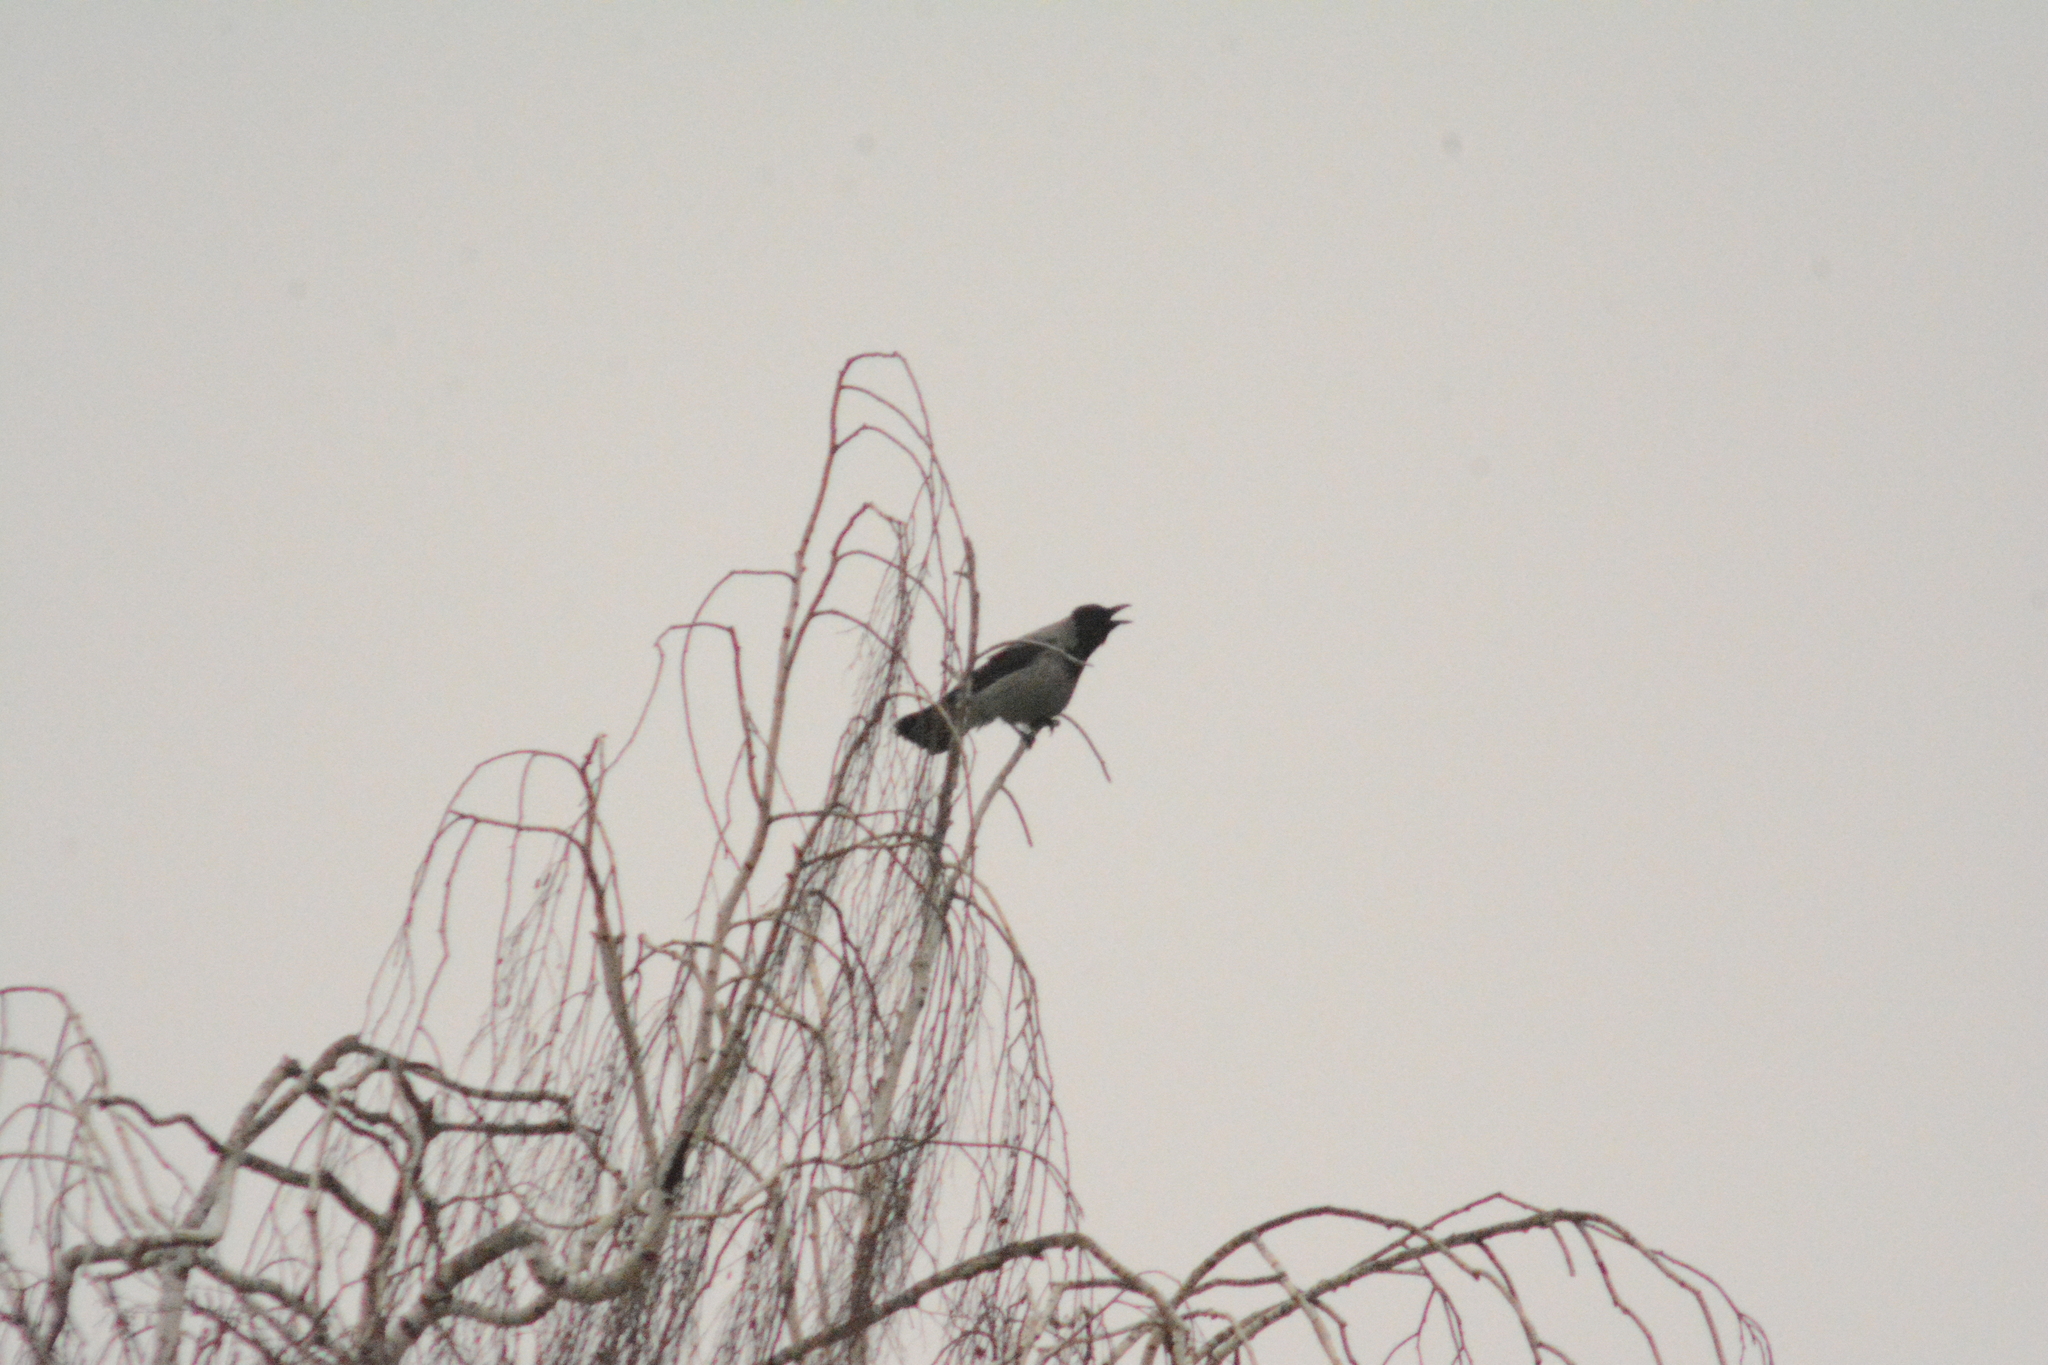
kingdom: Animalia
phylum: Chordata
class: Aves
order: Passeriformes
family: Corvidae
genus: Corvus
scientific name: Corvus cornix
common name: Hooded crow
